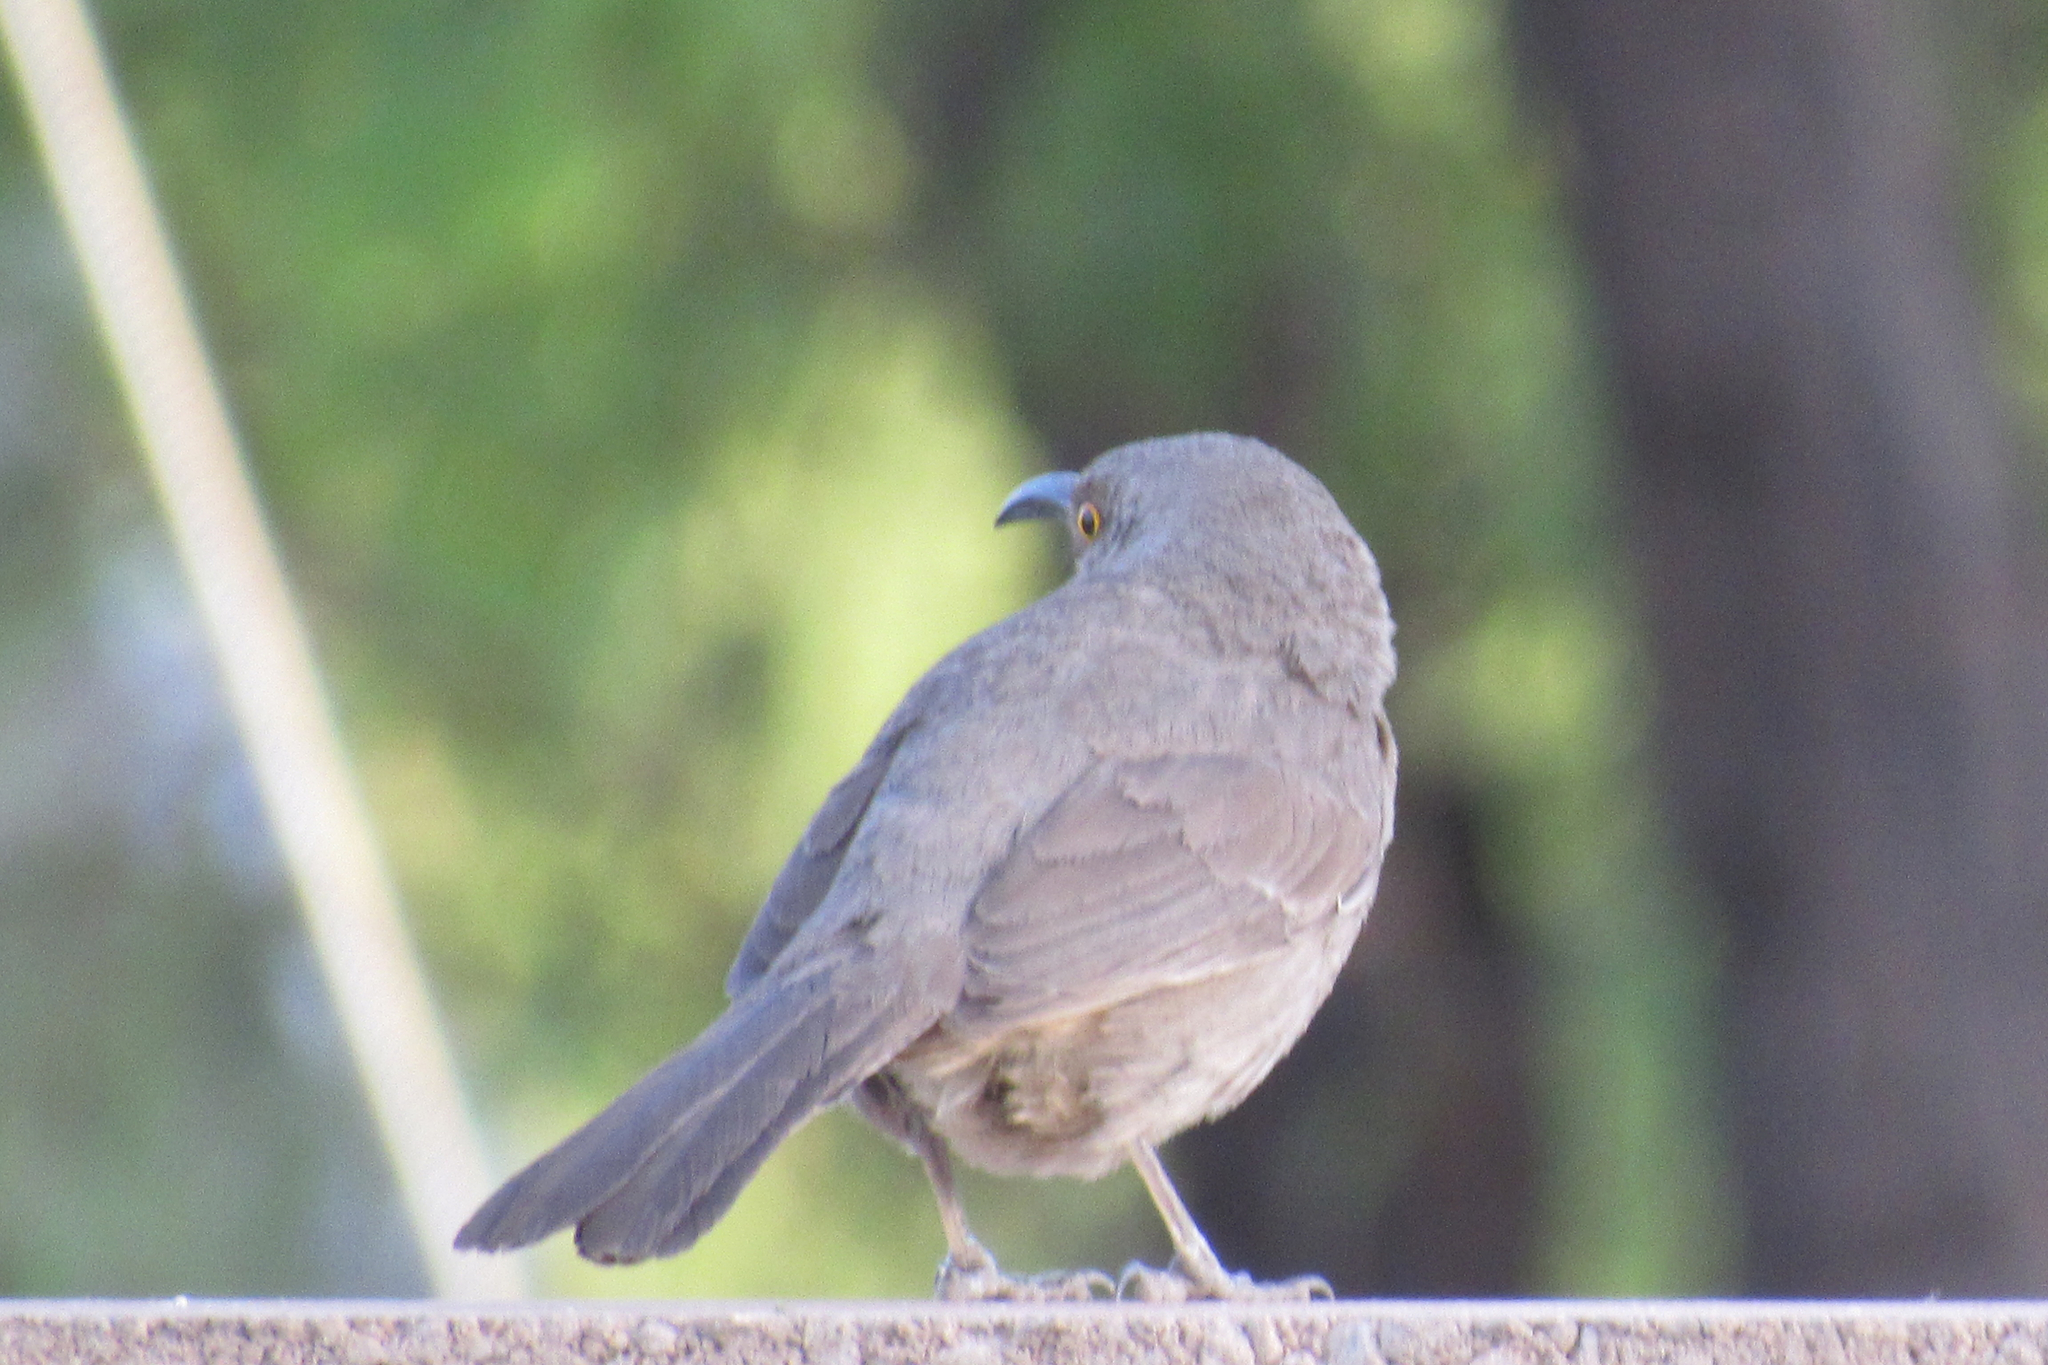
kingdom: Animalia
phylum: Chordata
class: Aves
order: Passeriformes
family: Mimidae
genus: Toxostoma
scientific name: Toxostoma curvirostre
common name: Curve-billed thrasher
